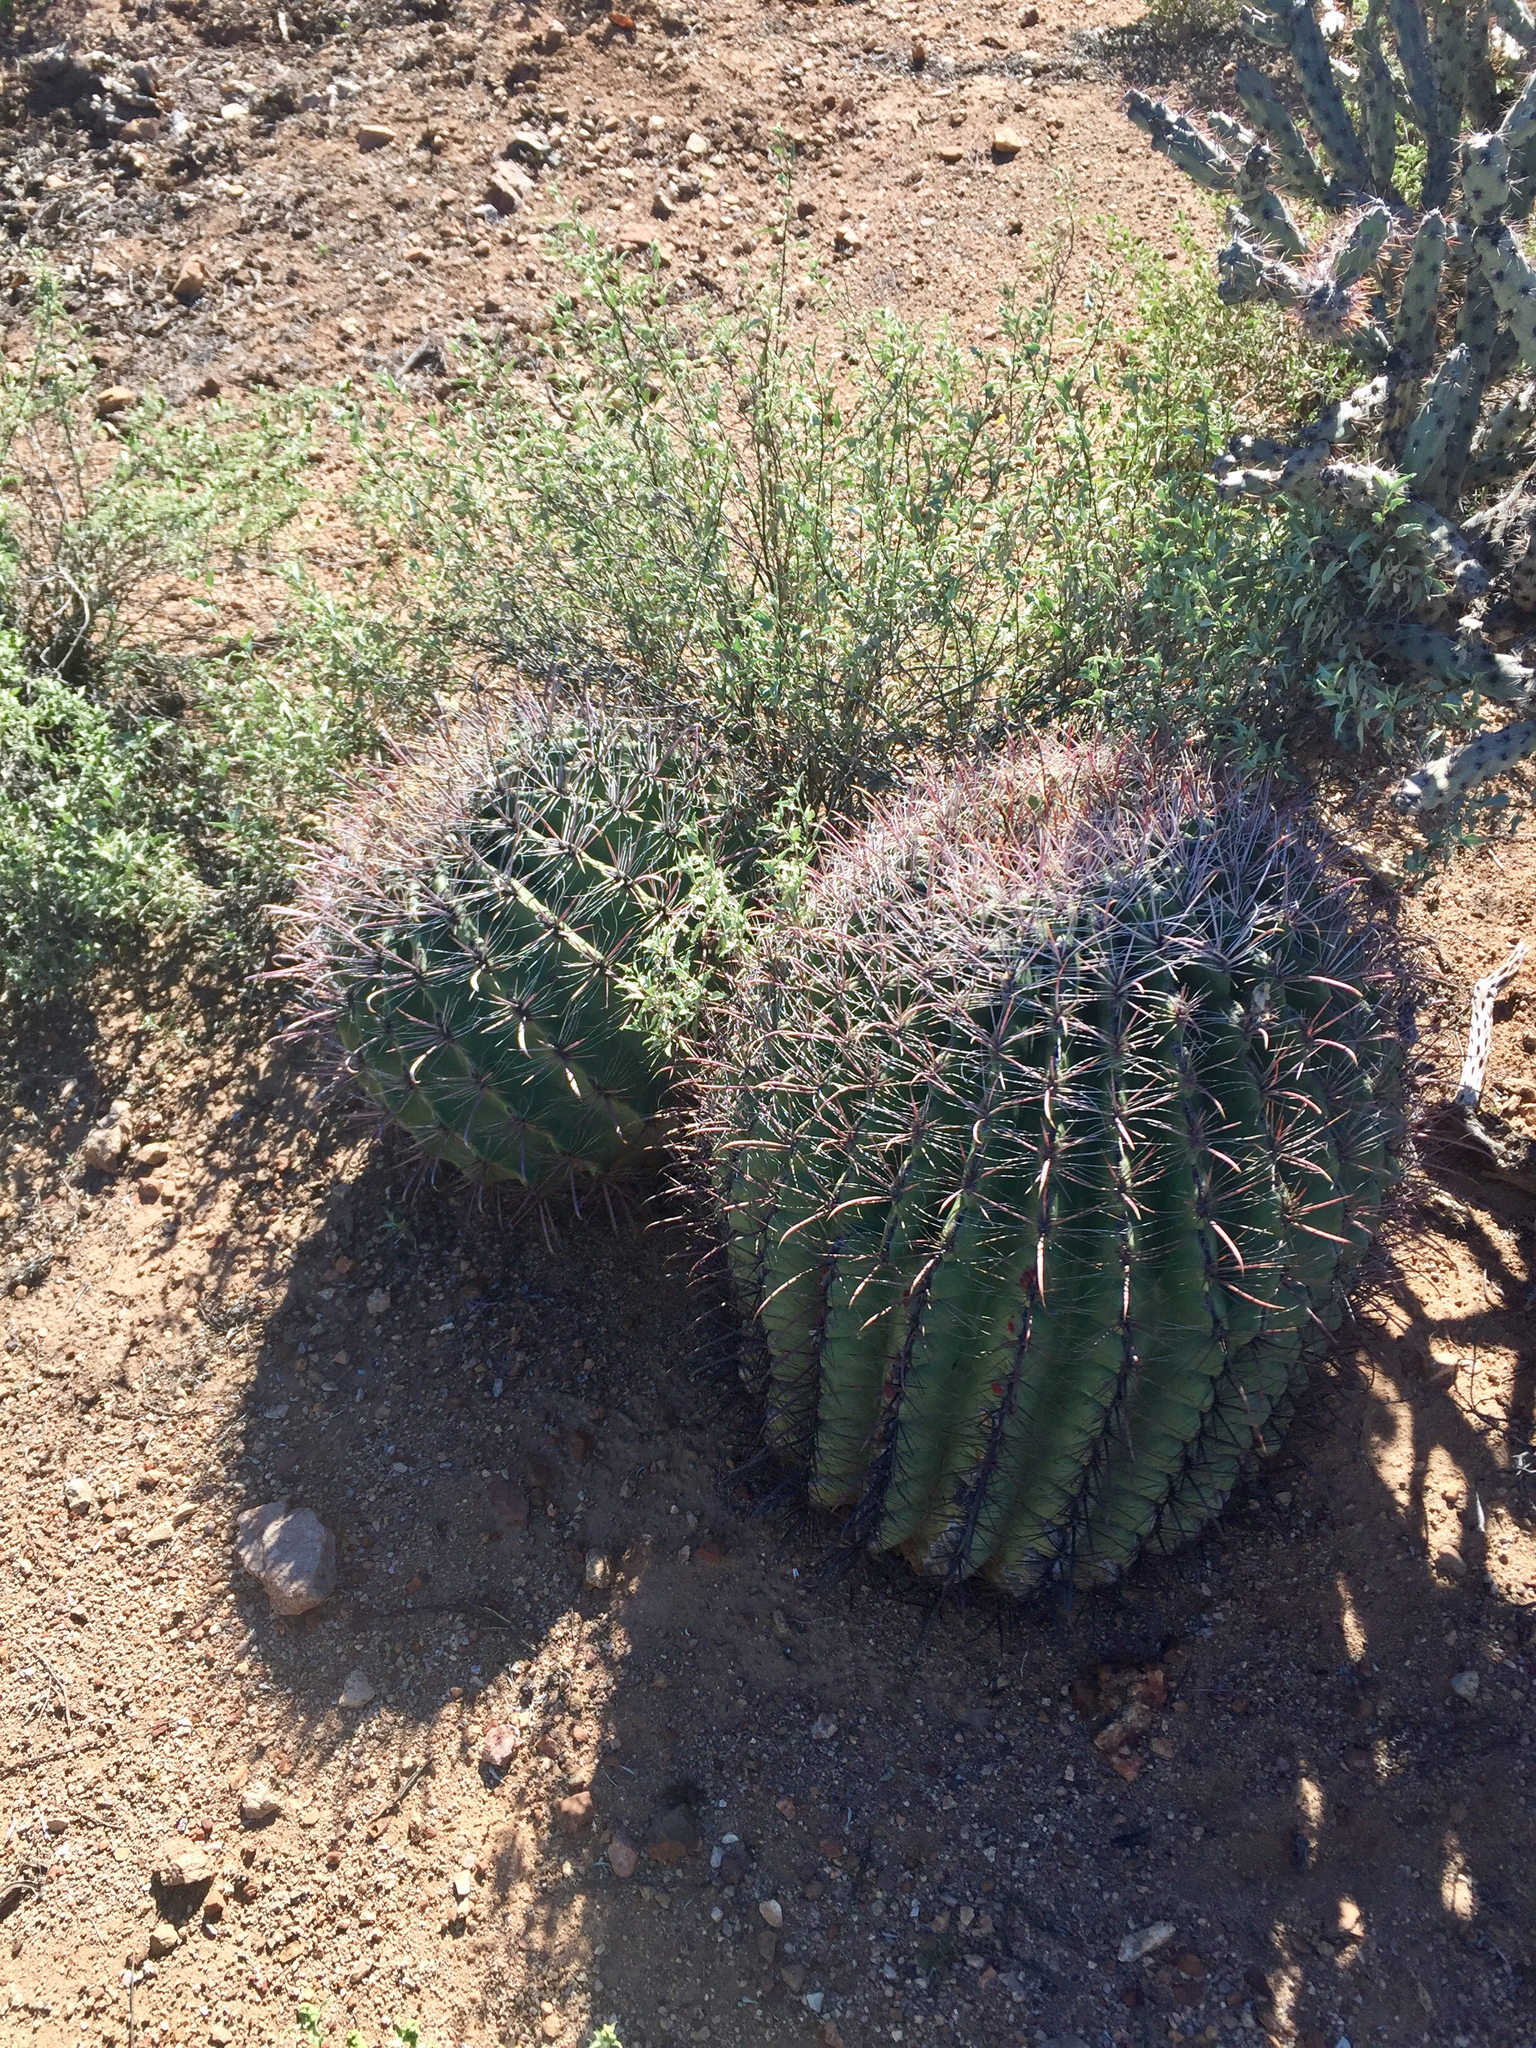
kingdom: Plantae
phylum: Tracheophyta
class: Magnoliopsida
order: Caryophyllales
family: Cactaceae
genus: Ferocactus
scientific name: Ferocactus wislizeni
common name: Candy barrel cactus
